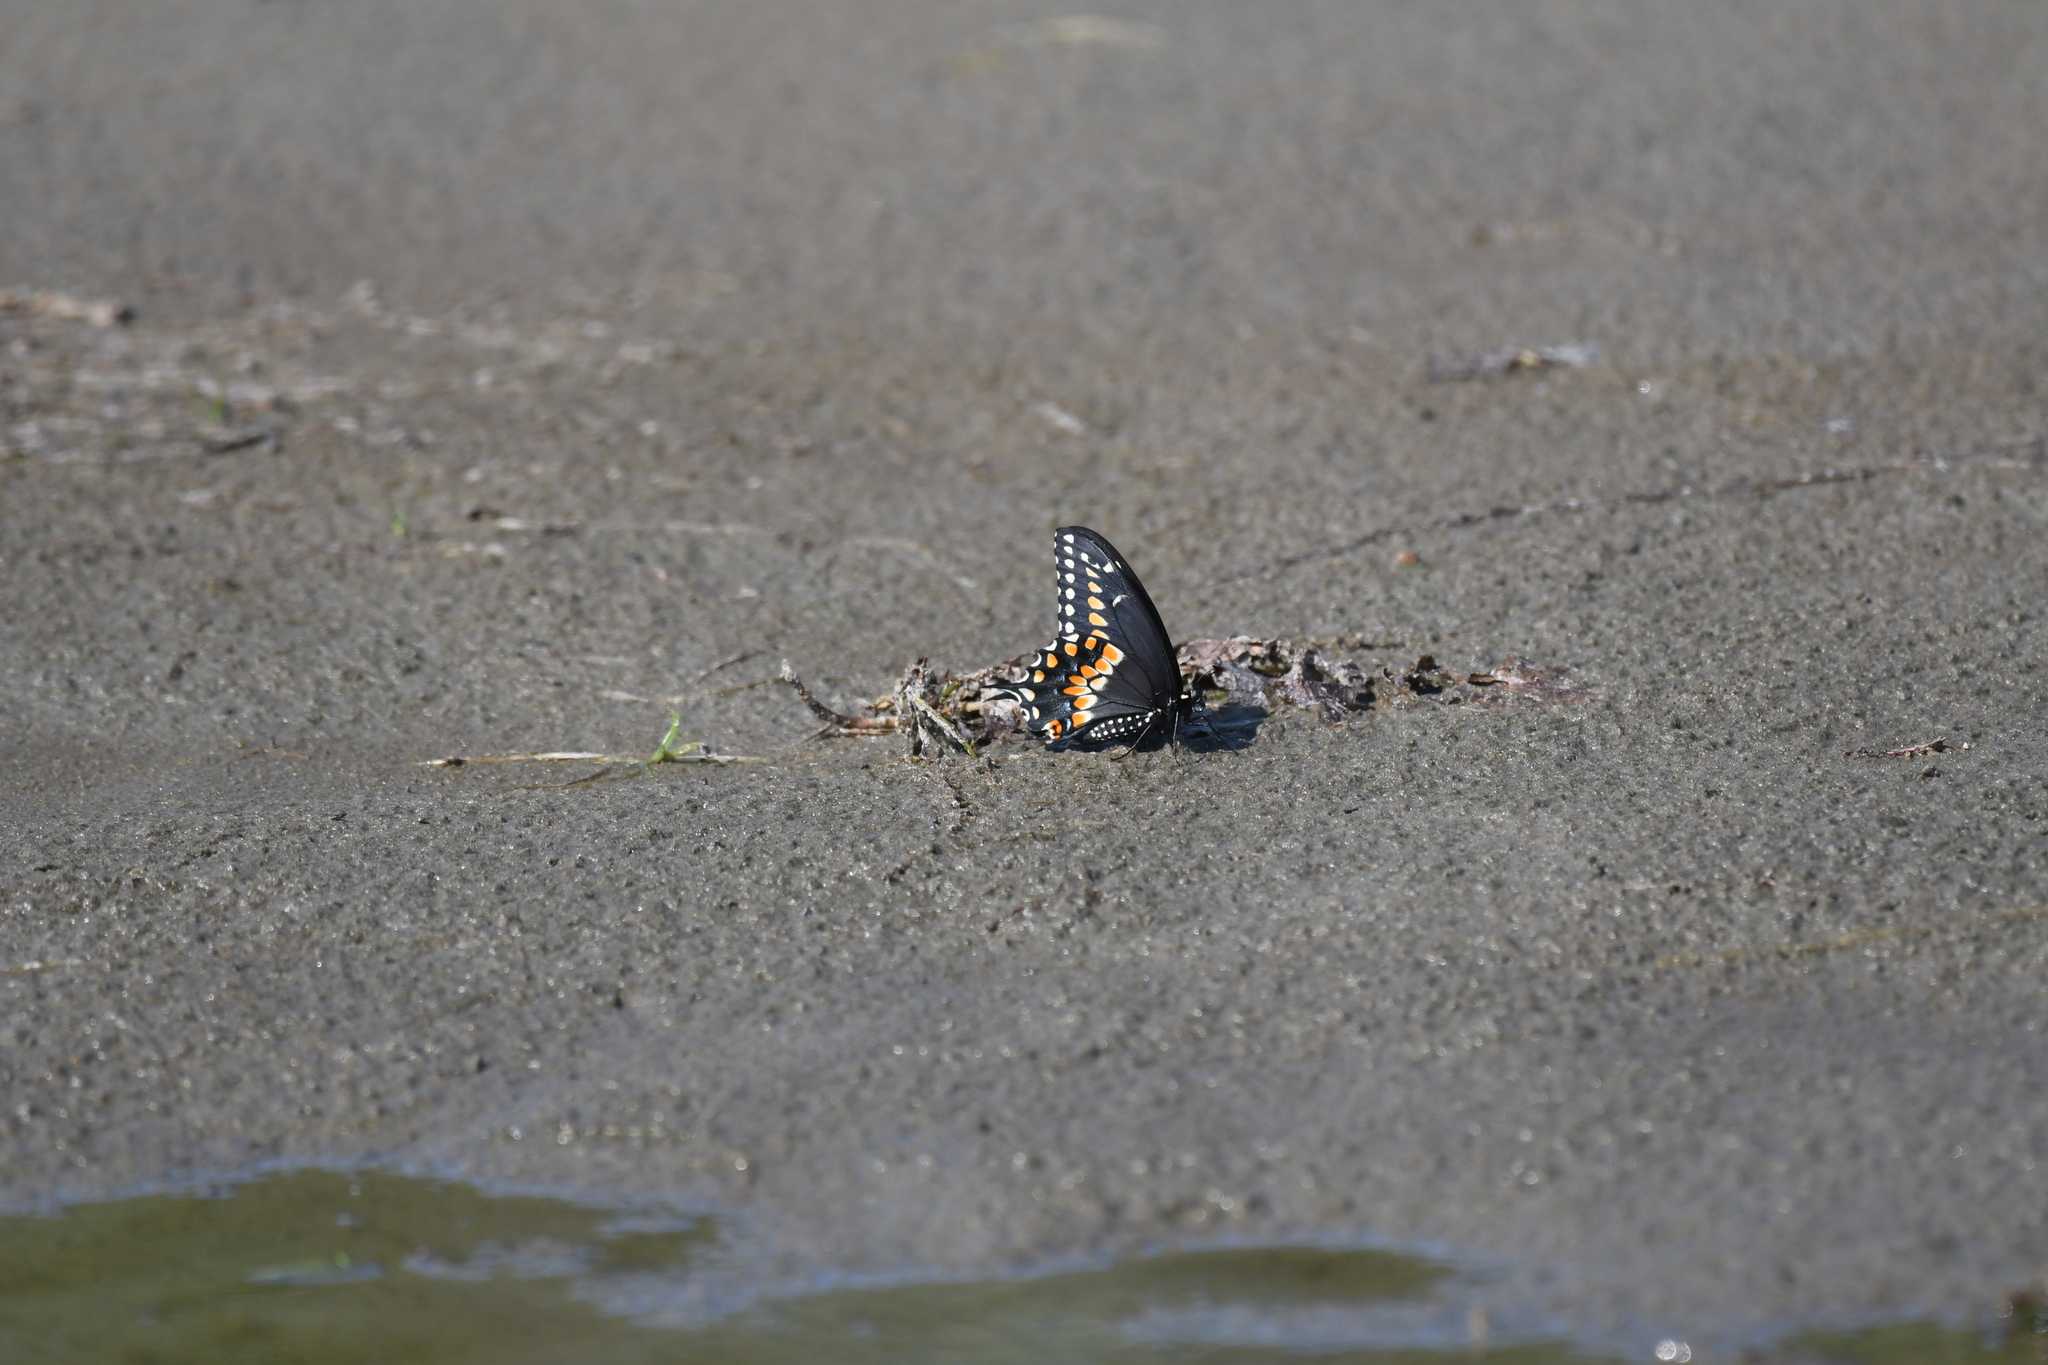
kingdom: Animalia
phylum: Arthropoda
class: Insecta
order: Lepidoptera
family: Papilionidae
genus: Papilio
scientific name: Papilio polyxenes
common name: Black swallowtail
